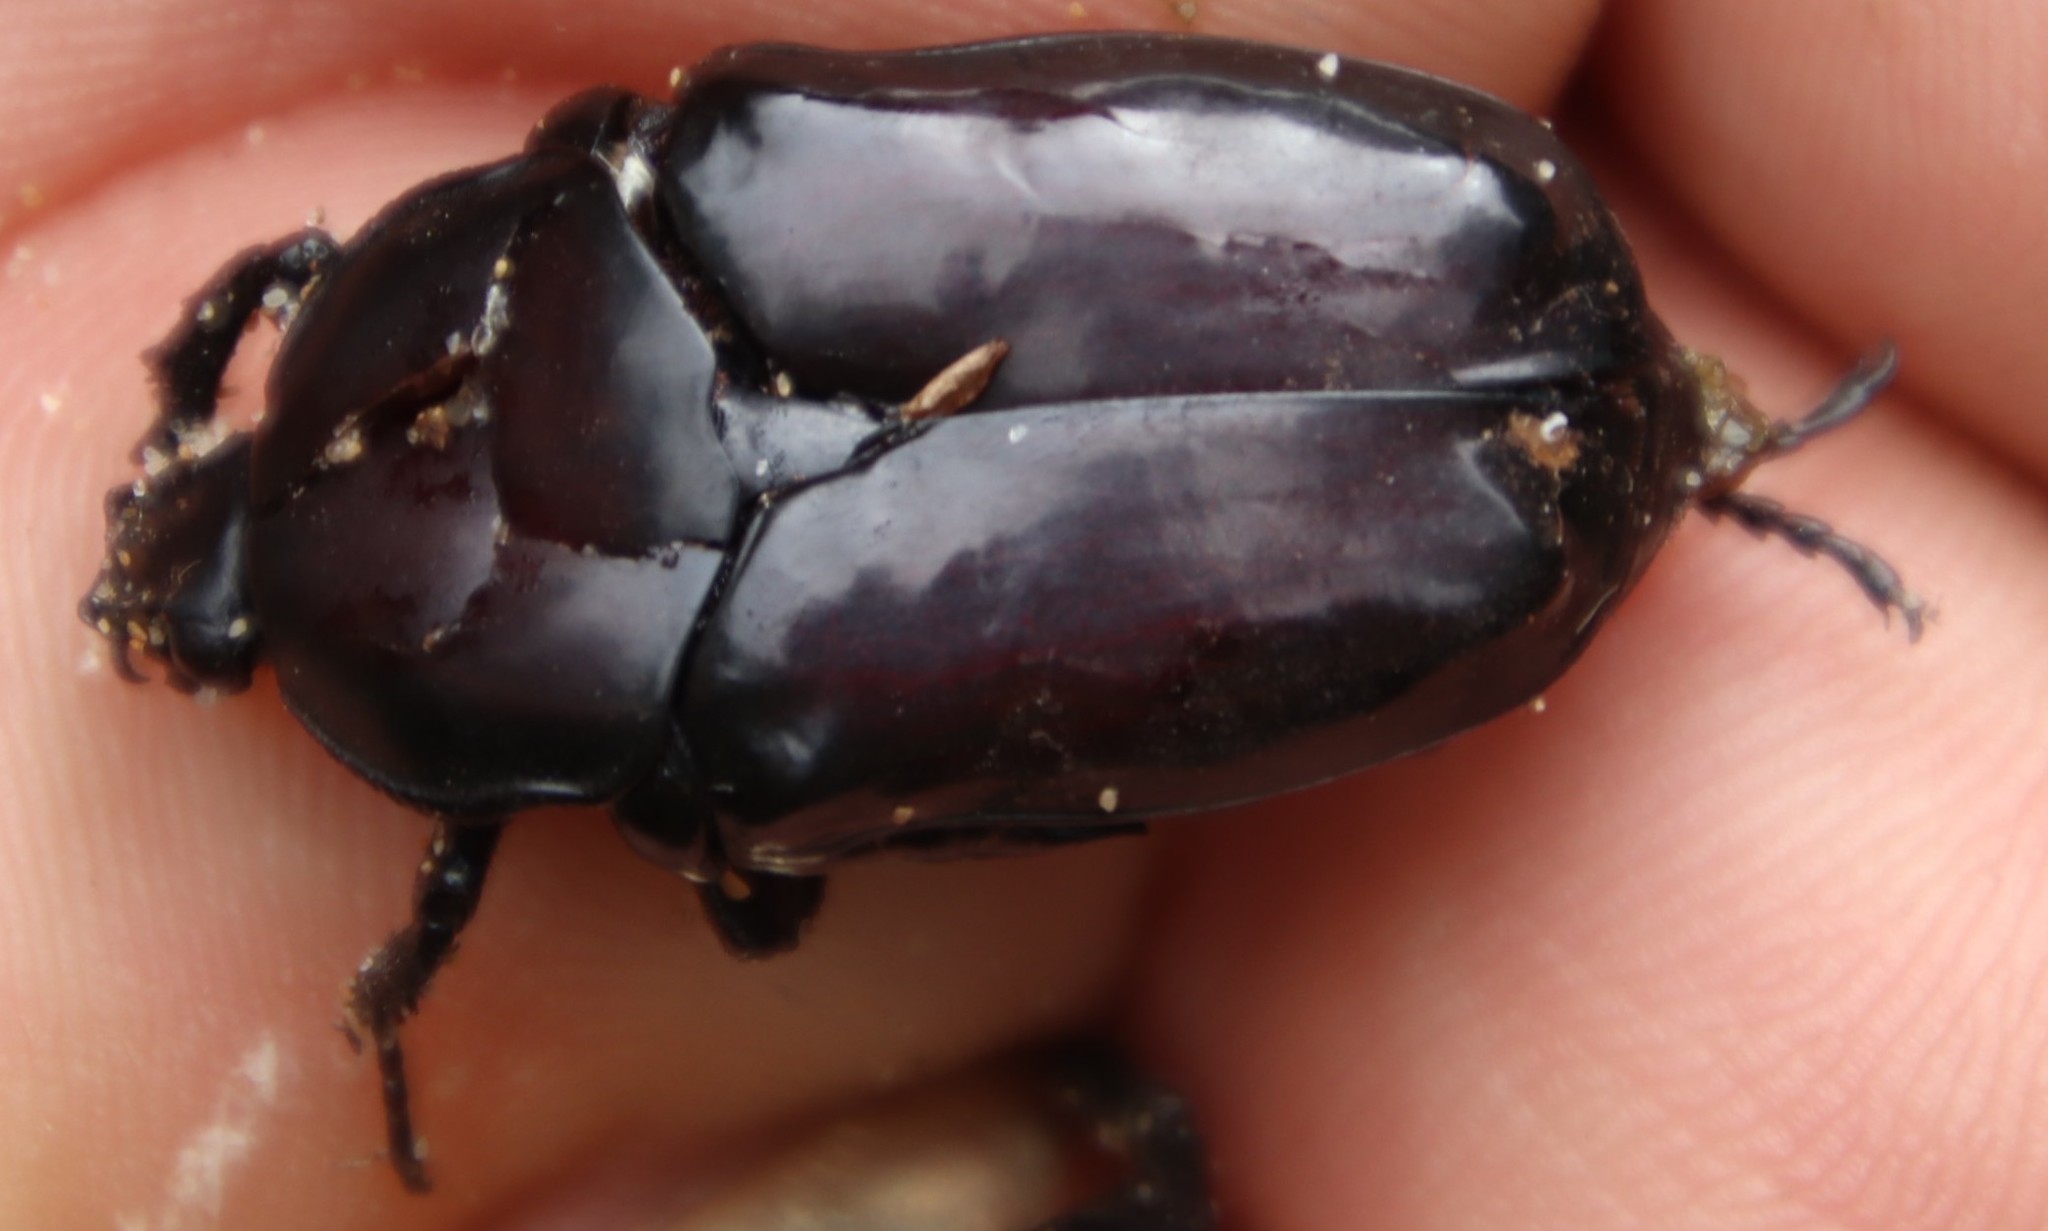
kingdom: Animalia
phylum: Arthropoda
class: Insecta
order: Coleoptera
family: Scarabaeidae
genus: Diplognatha
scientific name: Diplognatha gagates
